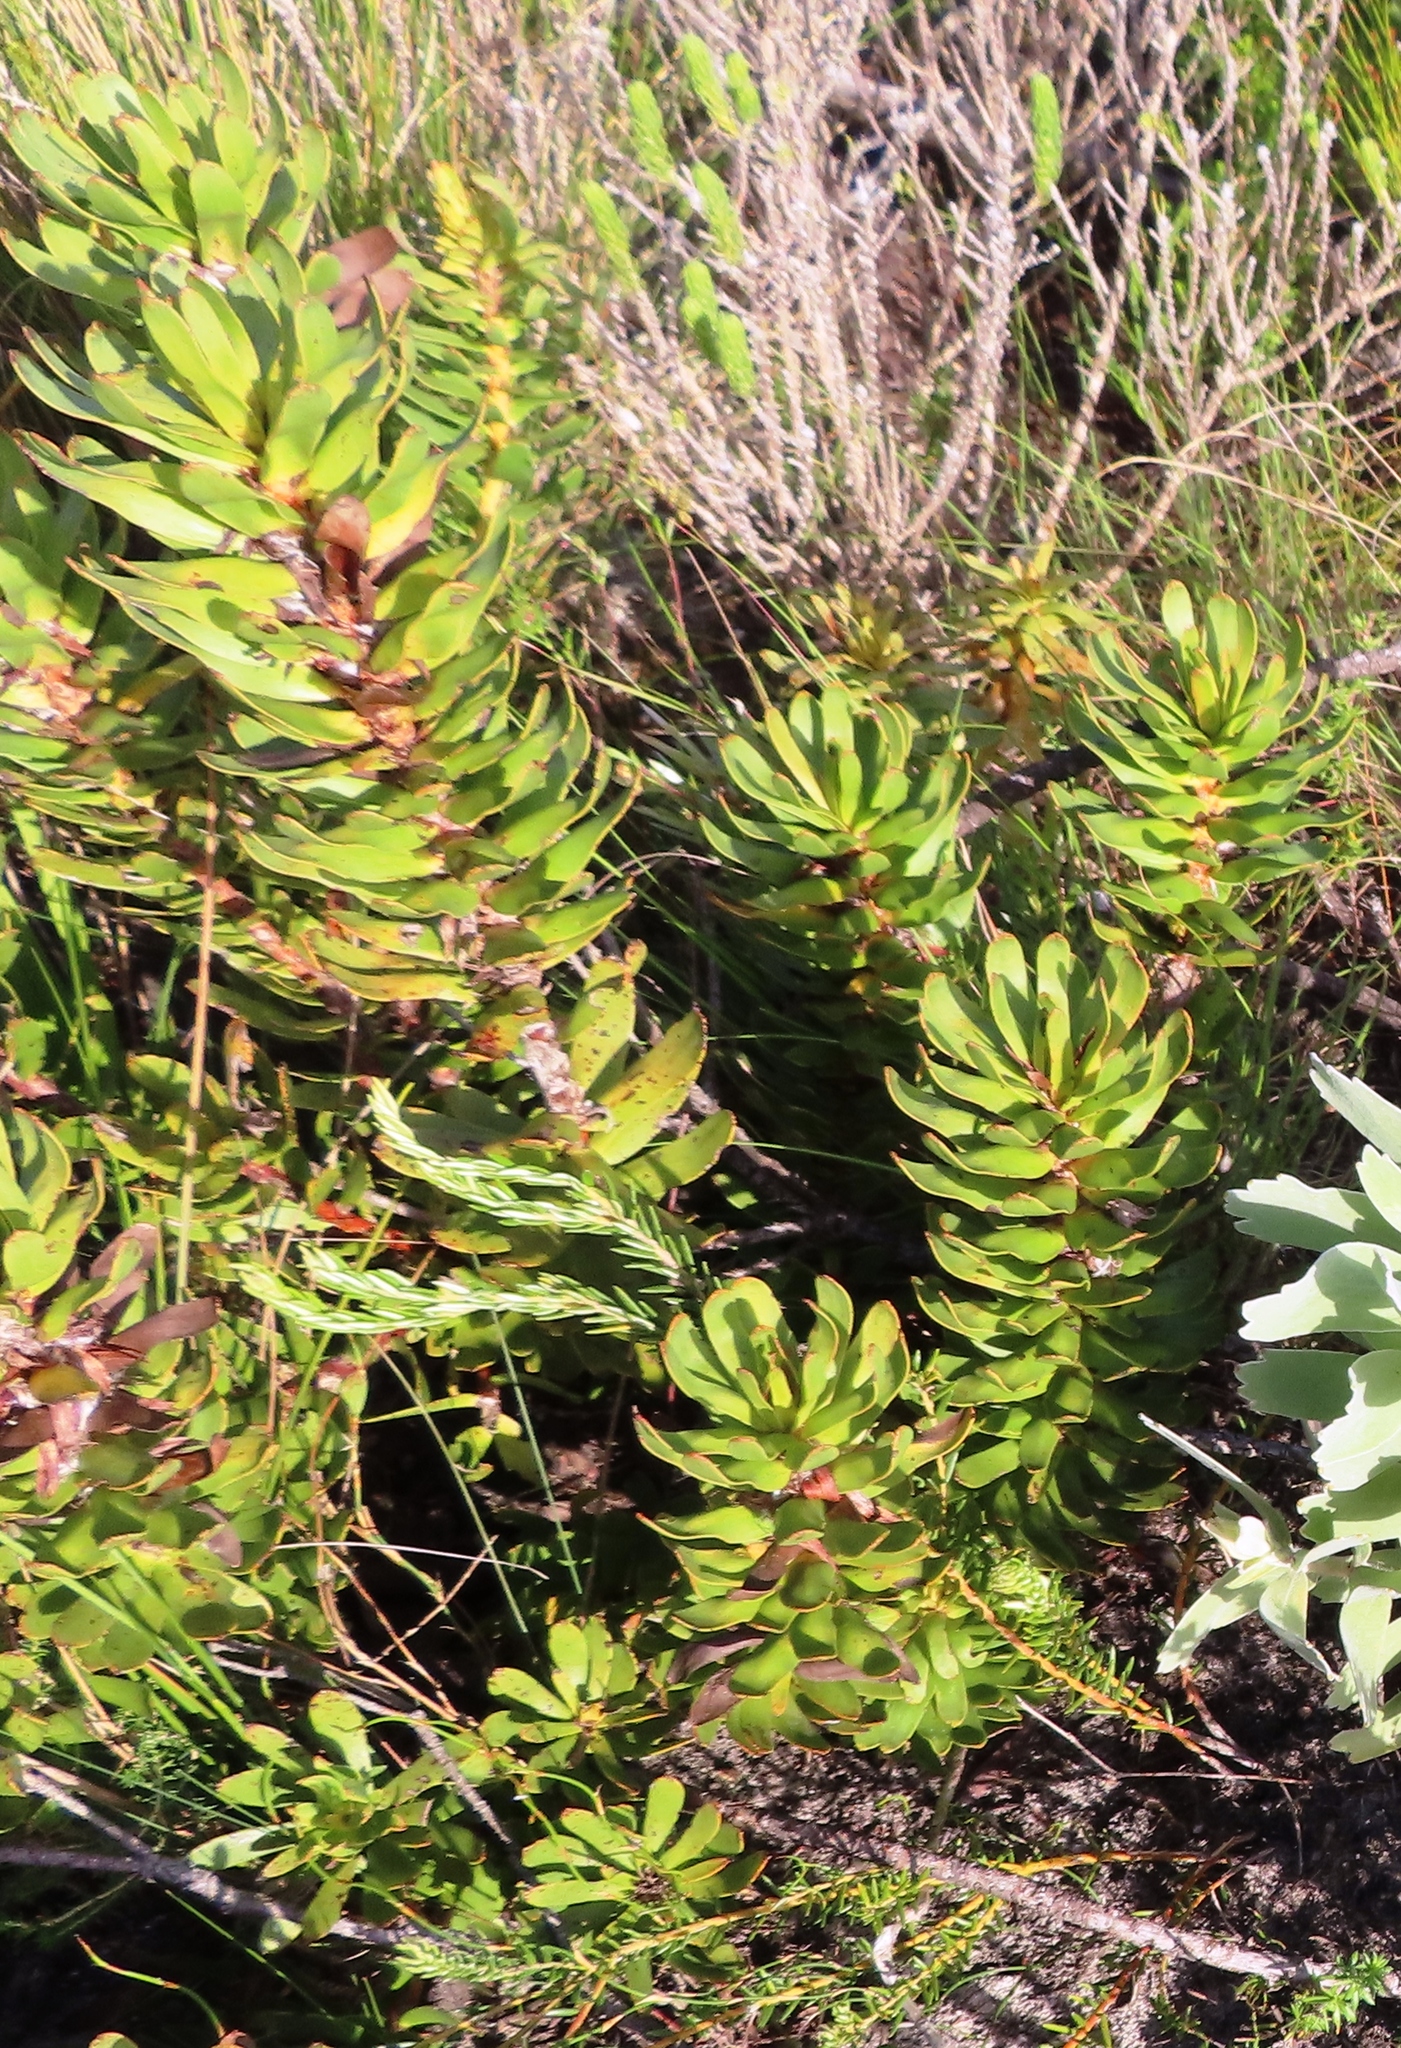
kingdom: Plantae
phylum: Tracheophyta
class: Magnoliopsida
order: Proteales
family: Proteaceae
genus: Mimetes
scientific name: Mimetes cucullatus
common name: Common pagoda
